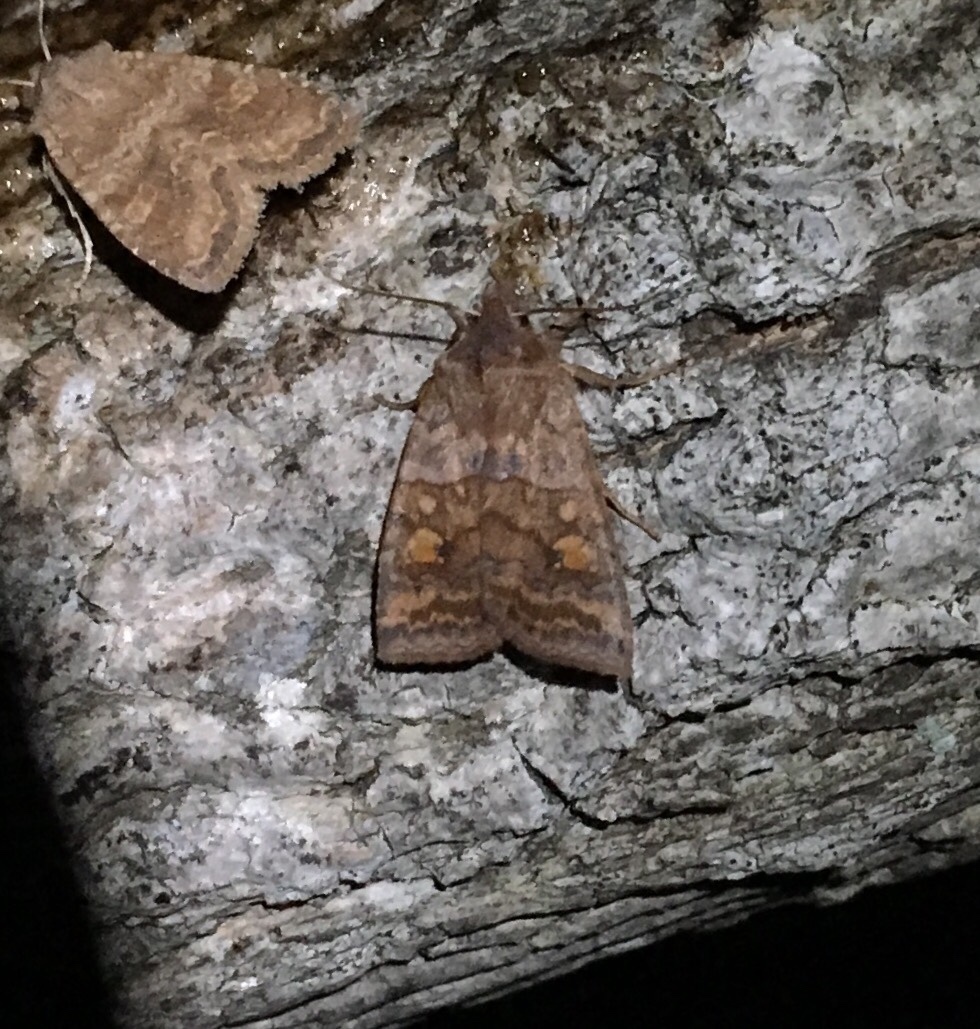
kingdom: Animalia
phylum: Arthropoda
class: Insecta
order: Lepidoptera
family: Noctuidae
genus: Eupsilia
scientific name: Eupsilia tristigmata
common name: Three-spotted sallow
